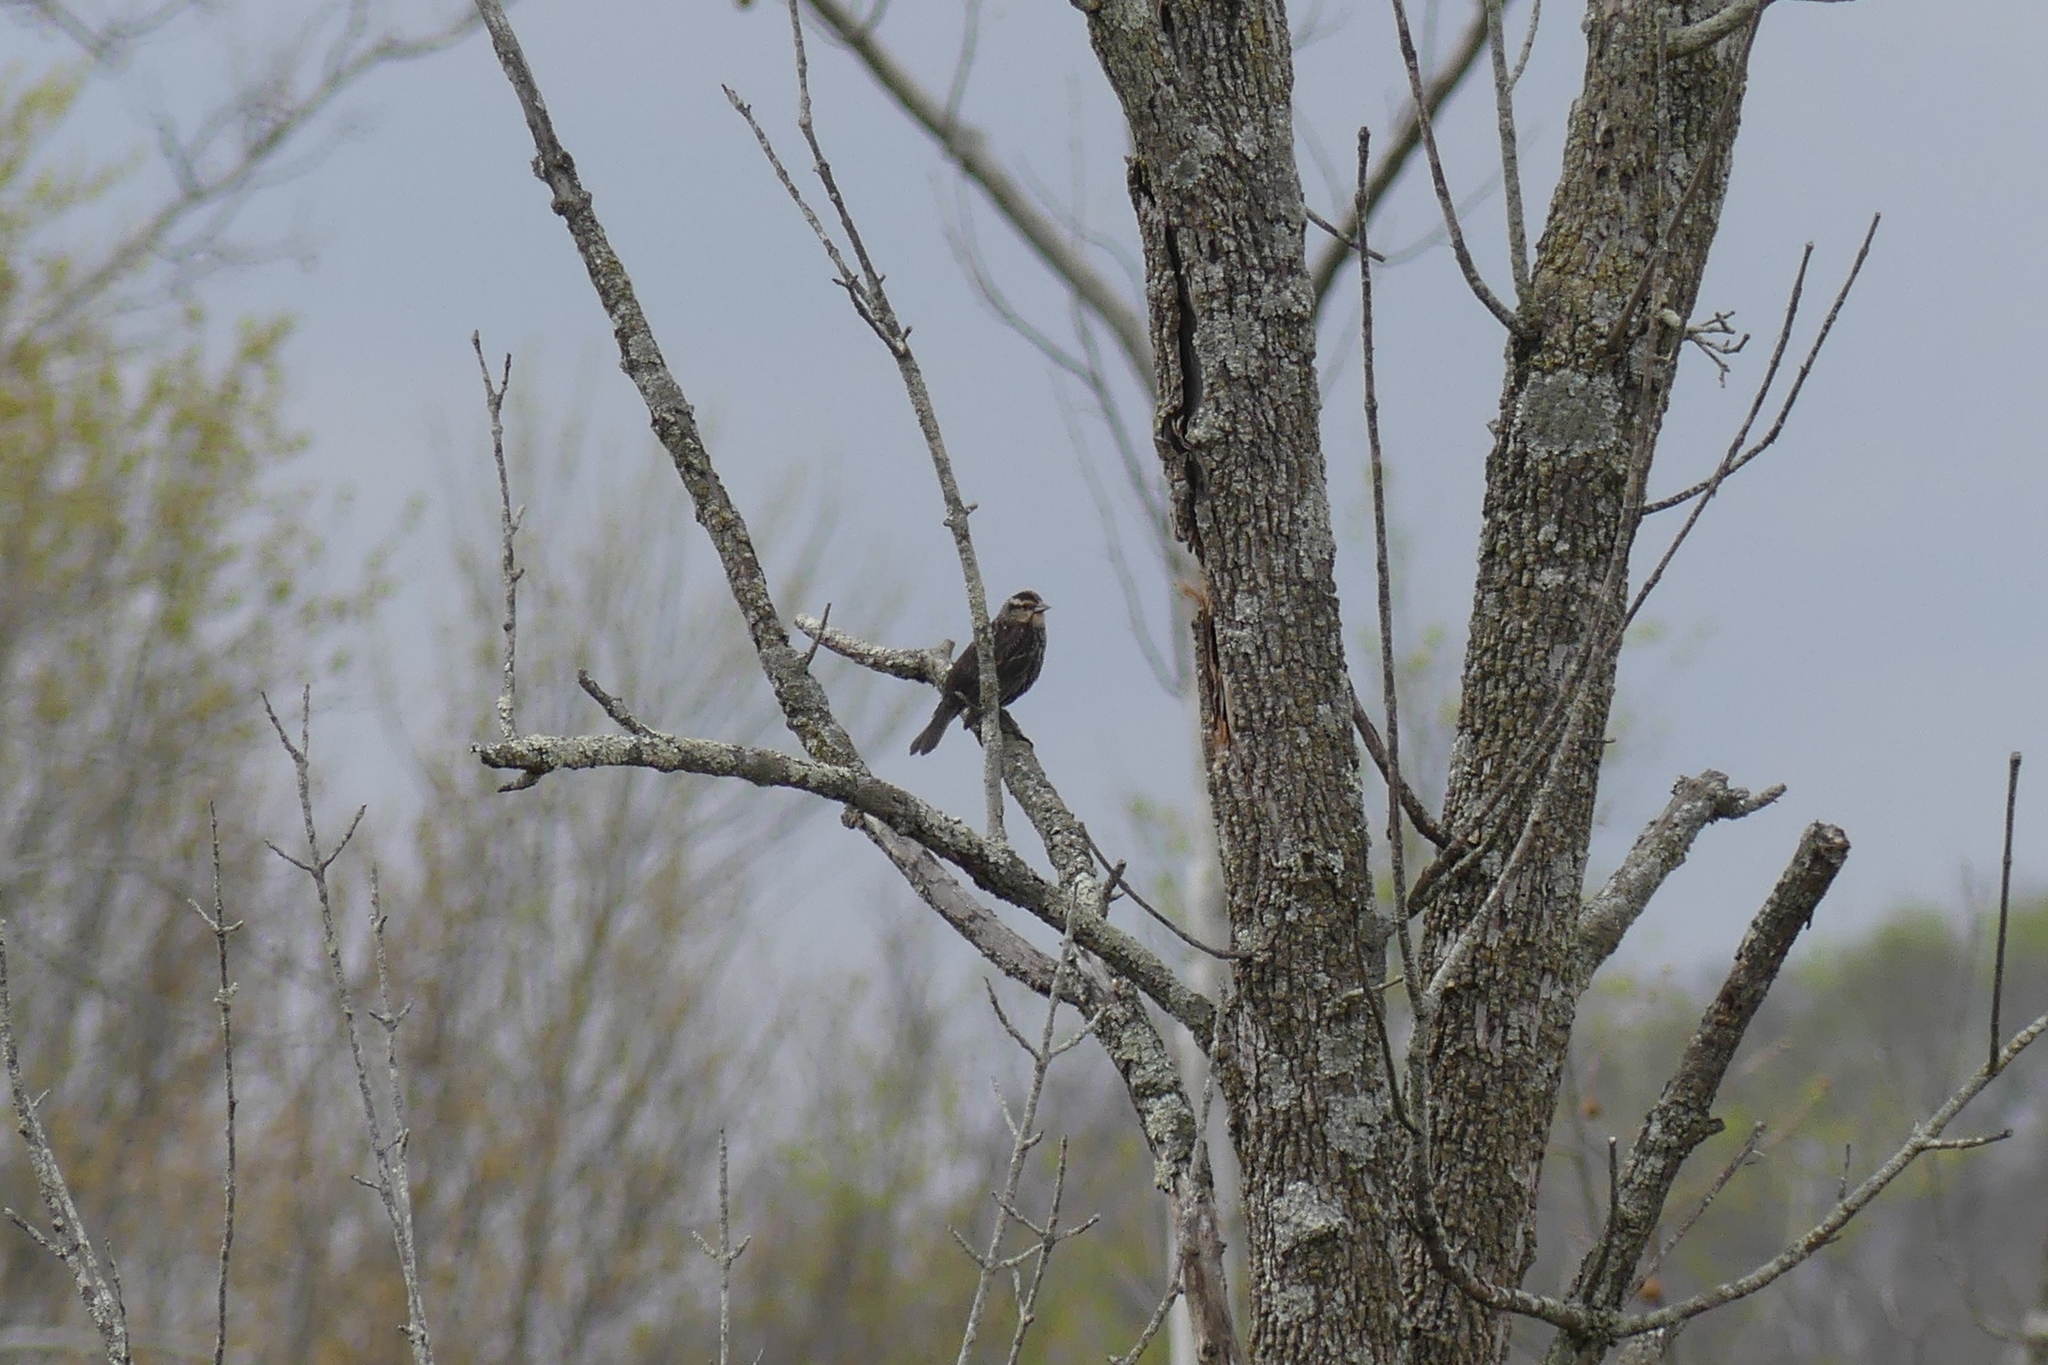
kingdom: Animalia
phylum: Chordata
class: Aves
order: Passeriformes
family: Icteridae
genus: Agelaius
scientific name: Agelaius phoeniceus
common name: Red-winged blackbird
